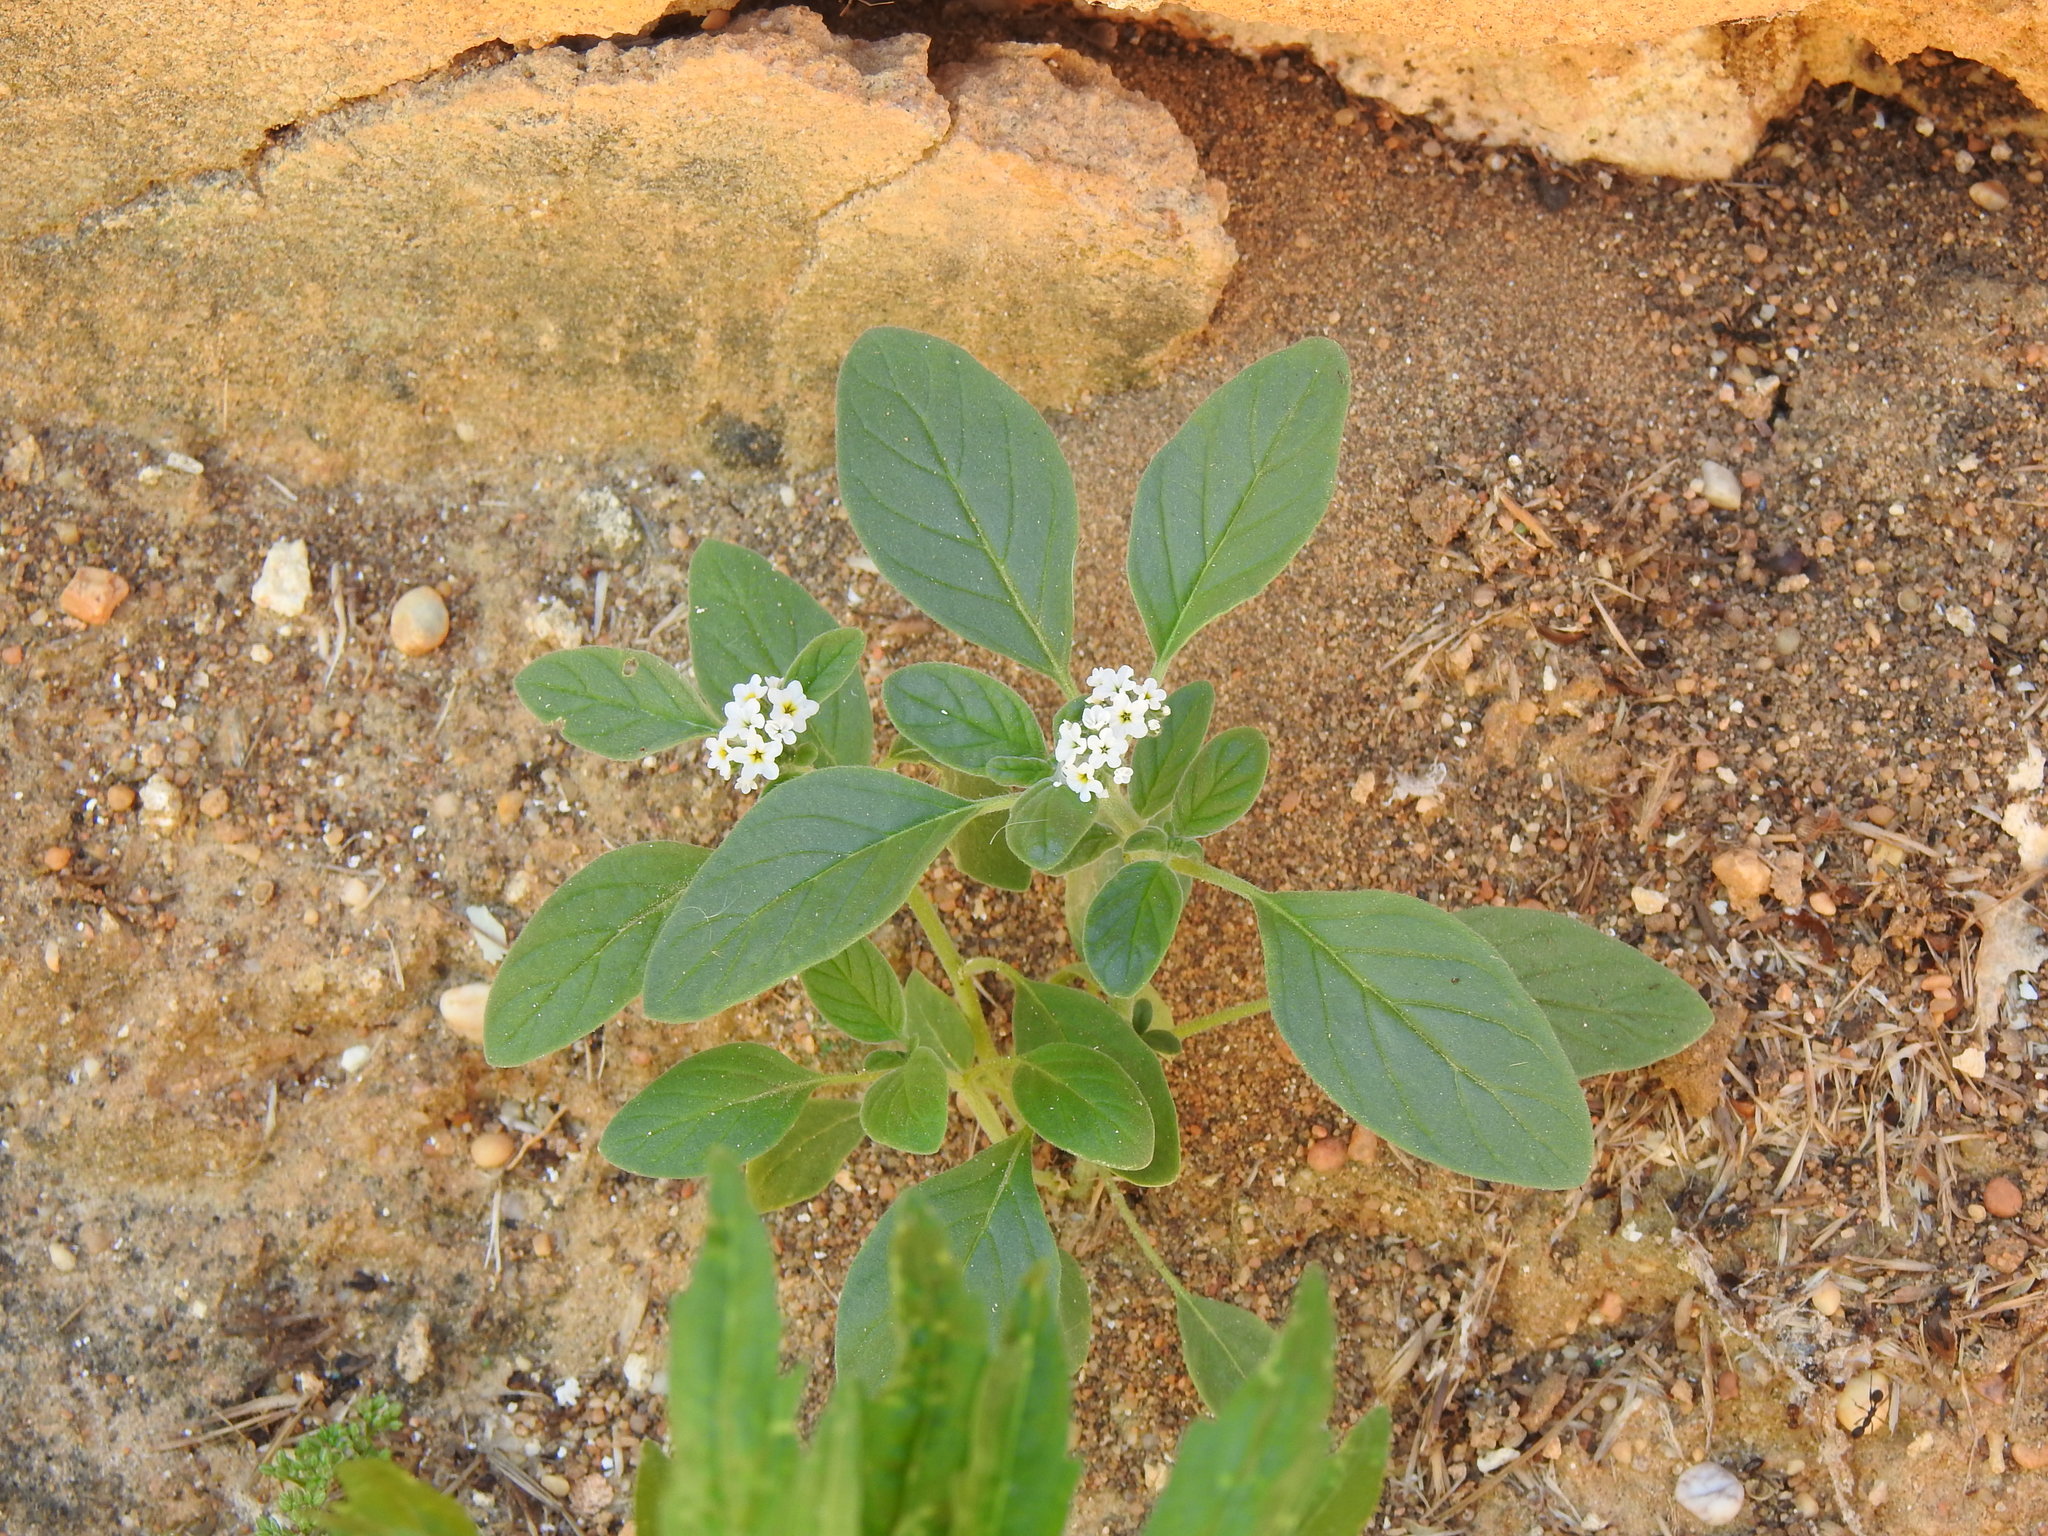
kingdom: Plantae
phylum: Tracheophyta
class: Magnoliopsida
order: Boraginales
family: Heliotropiaceae
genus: Heliotropium
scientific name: Heliotropium europaeum
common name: European heliotrope
